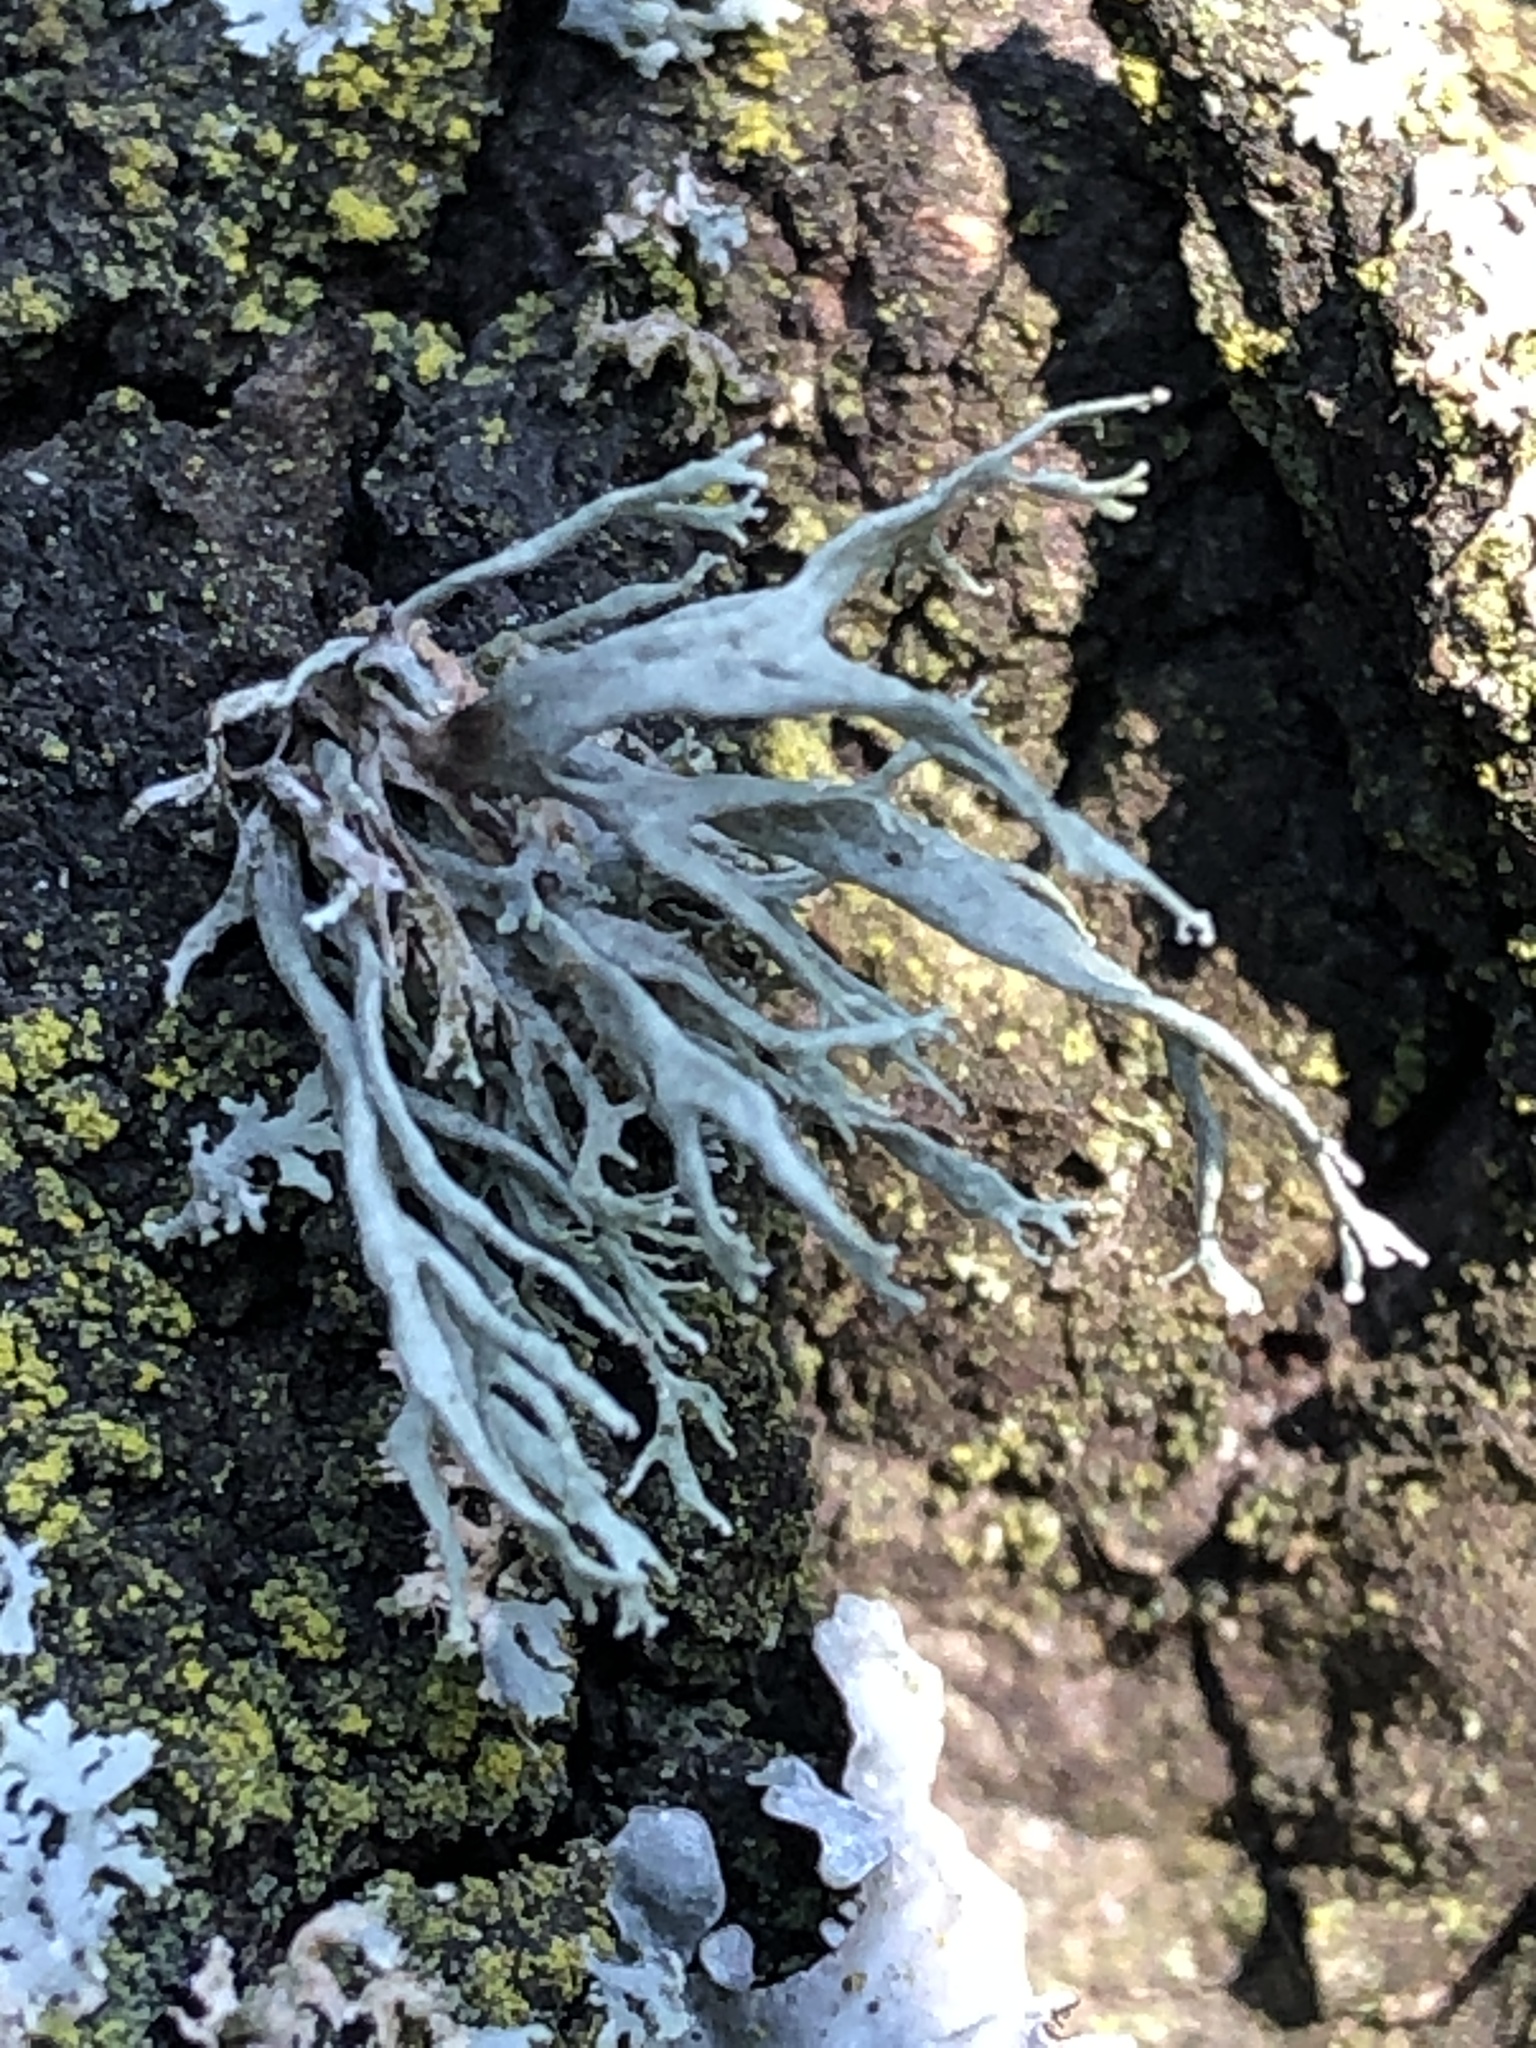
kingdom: Fungi
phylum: Ascomycota
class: Lecanoromycetes
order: Lecanorales
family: Ramalinaceae
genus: Ramalina
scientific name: Ramalina farinacea
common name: Farinose cartilage lichen
